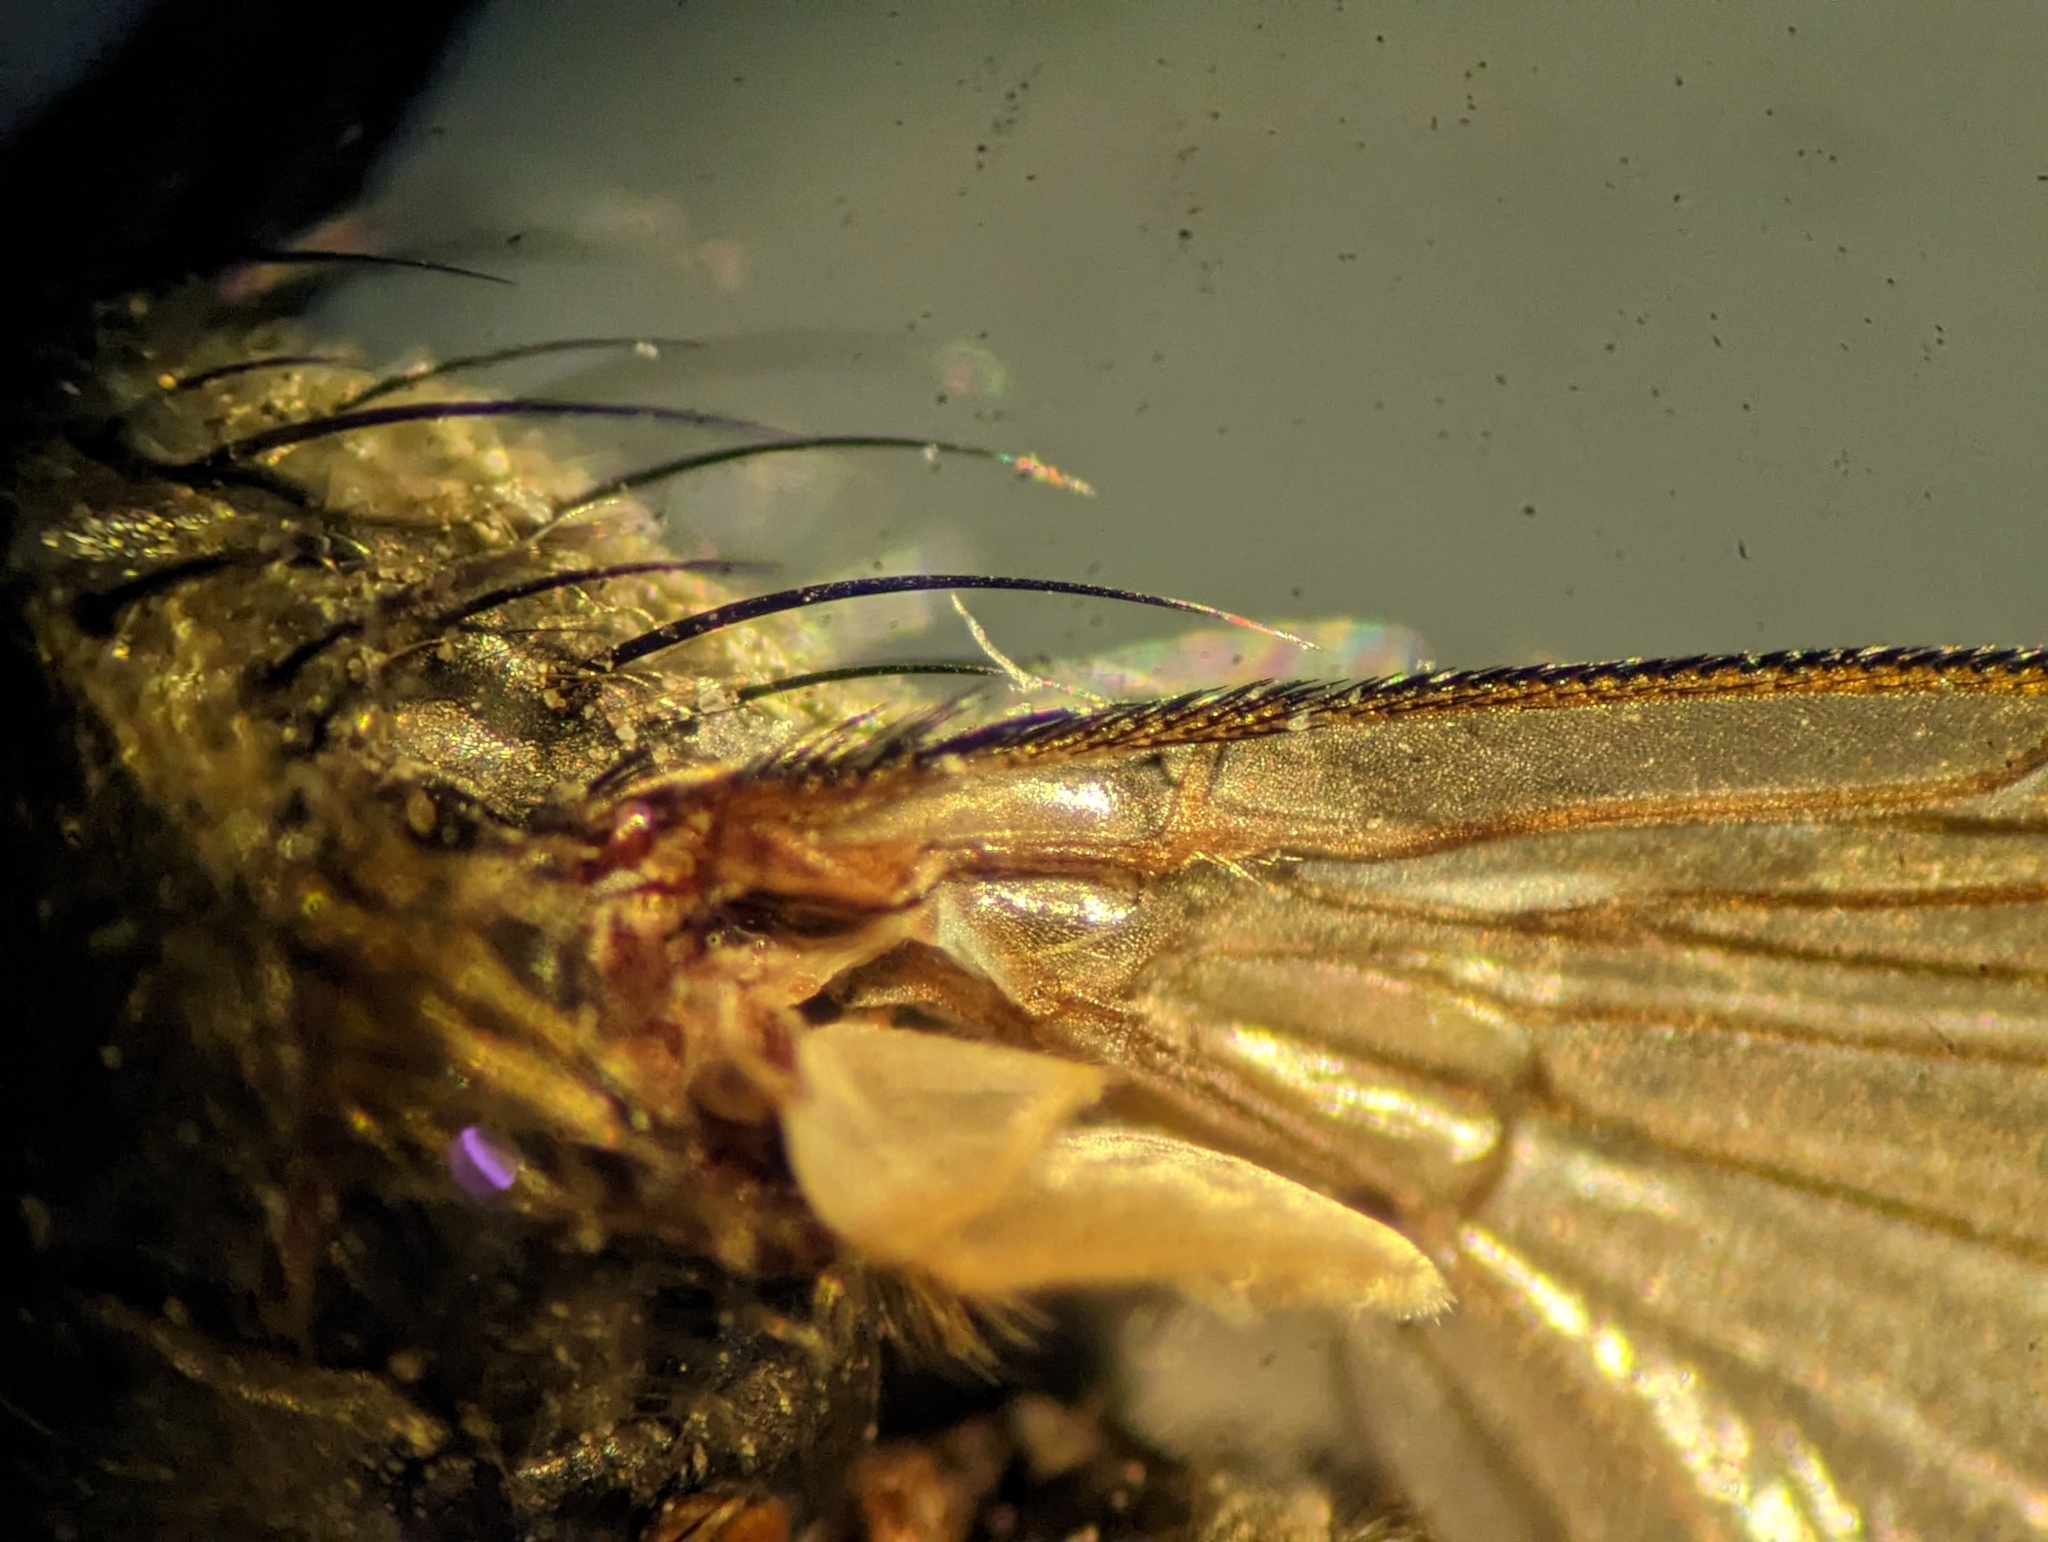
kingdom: Animalia
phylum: Arthropoda
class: Insecta
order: Diptera
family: Polleniidae
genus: Pollenia
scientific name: Pollenia pediculata
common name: Tufted clusterfly
